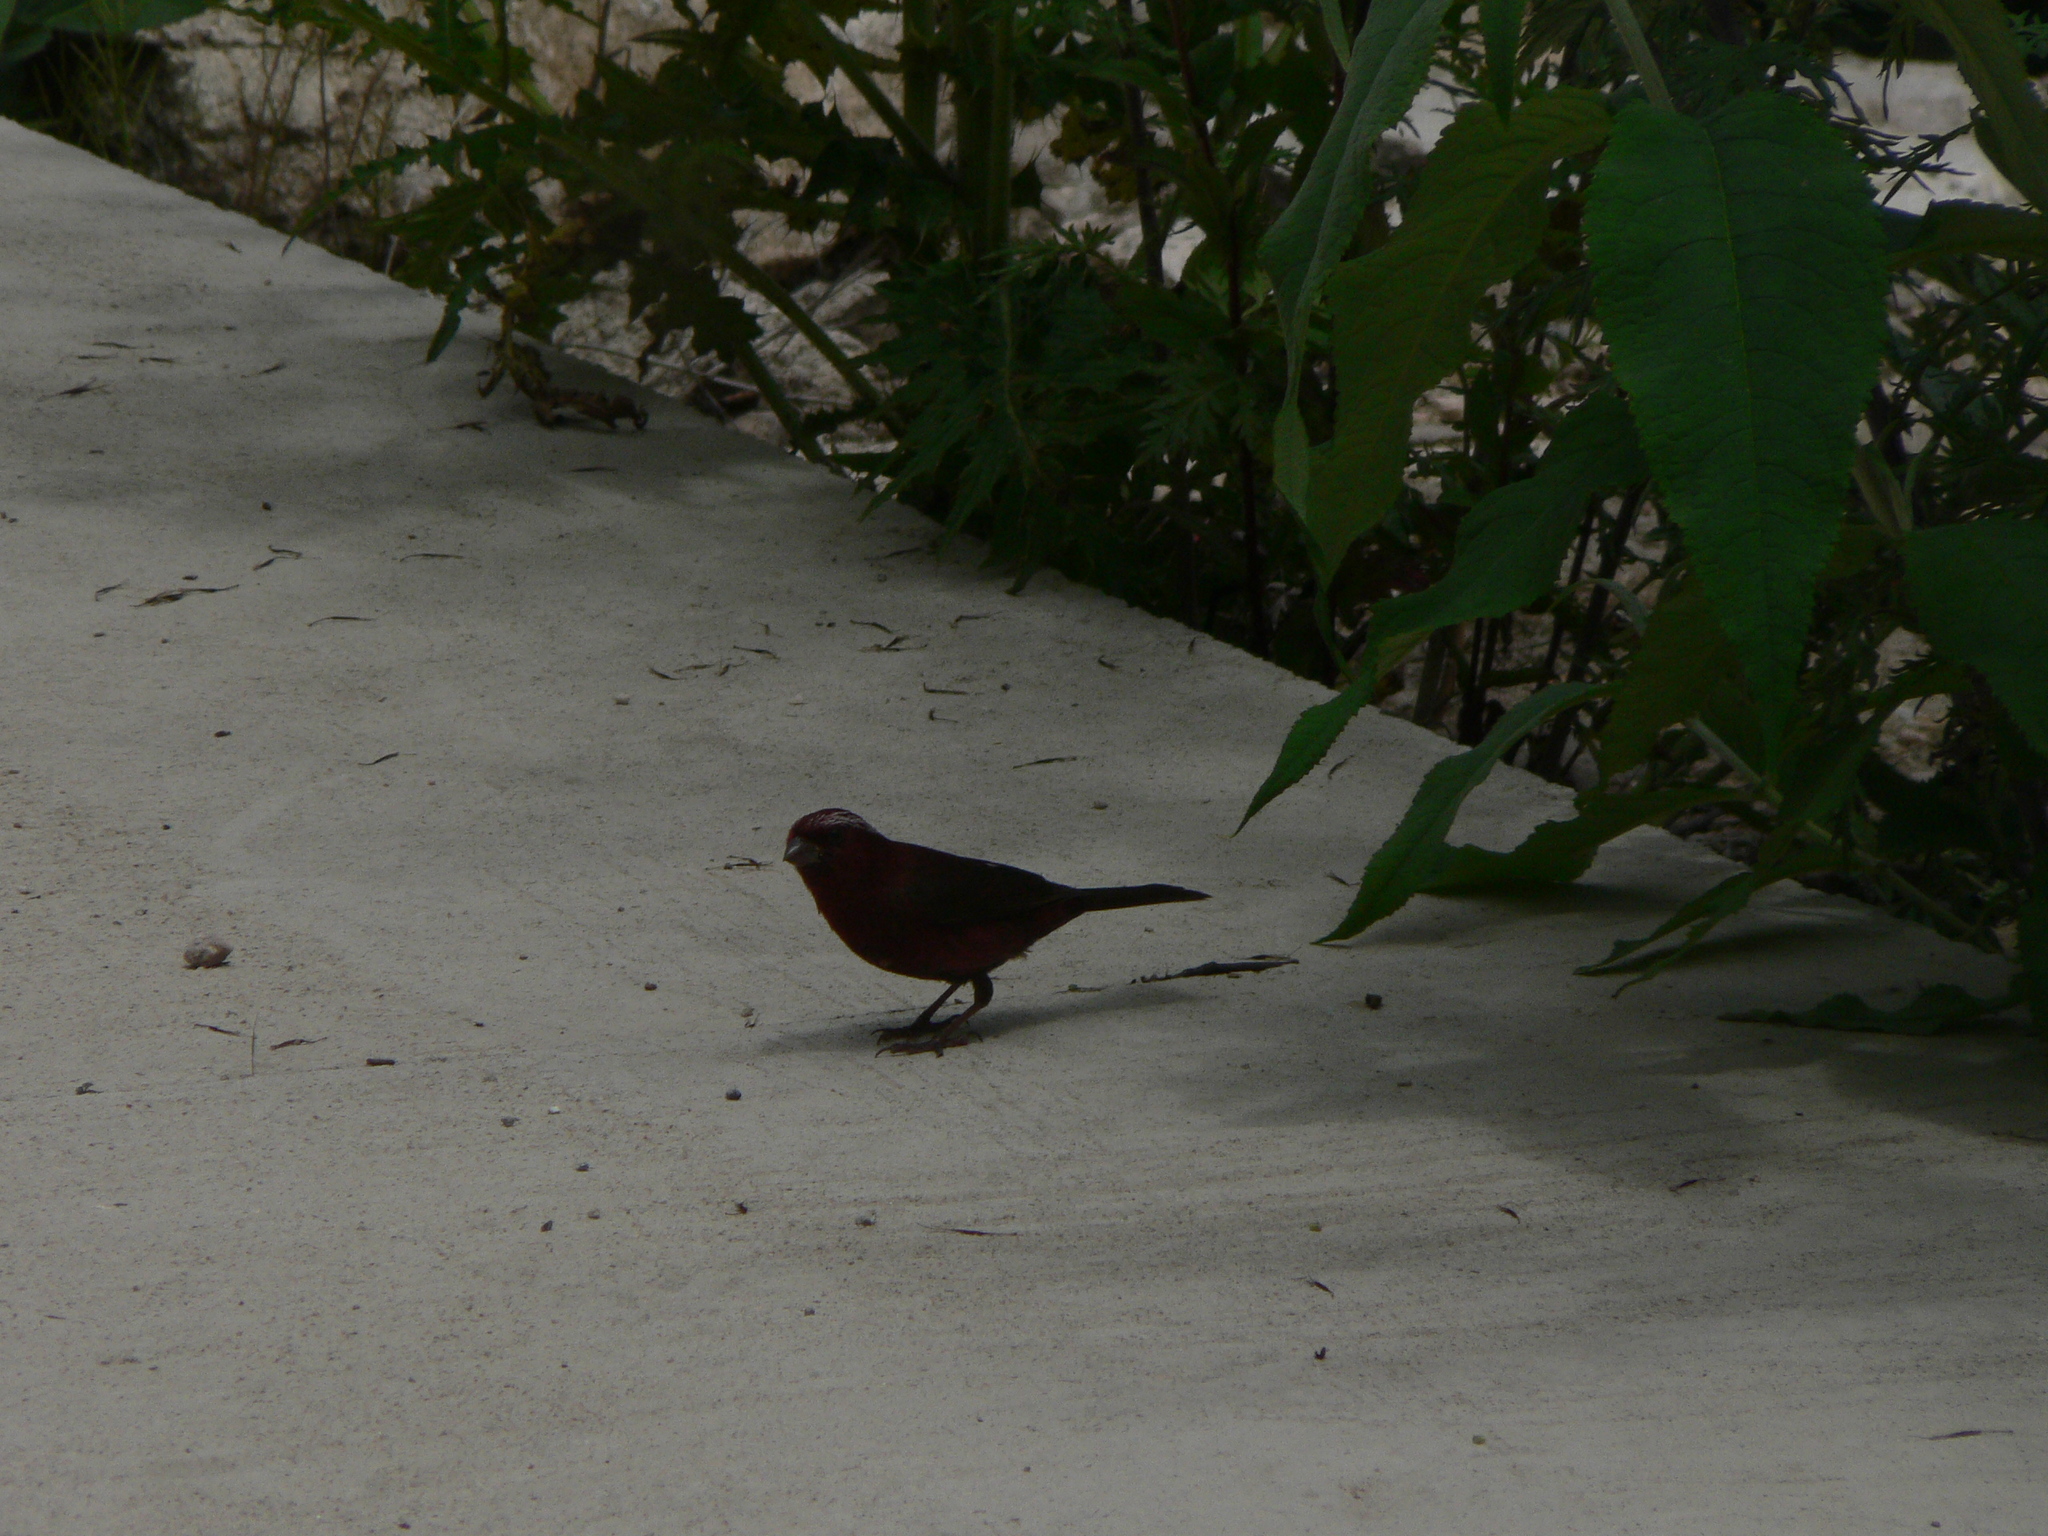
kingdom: Animalia
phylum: Chordata
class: Aves
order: Passeriformes
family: Fringillidae
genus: Carpodacus
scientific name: Carpodacus vinaceus
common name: Vinaceous rosefinch
